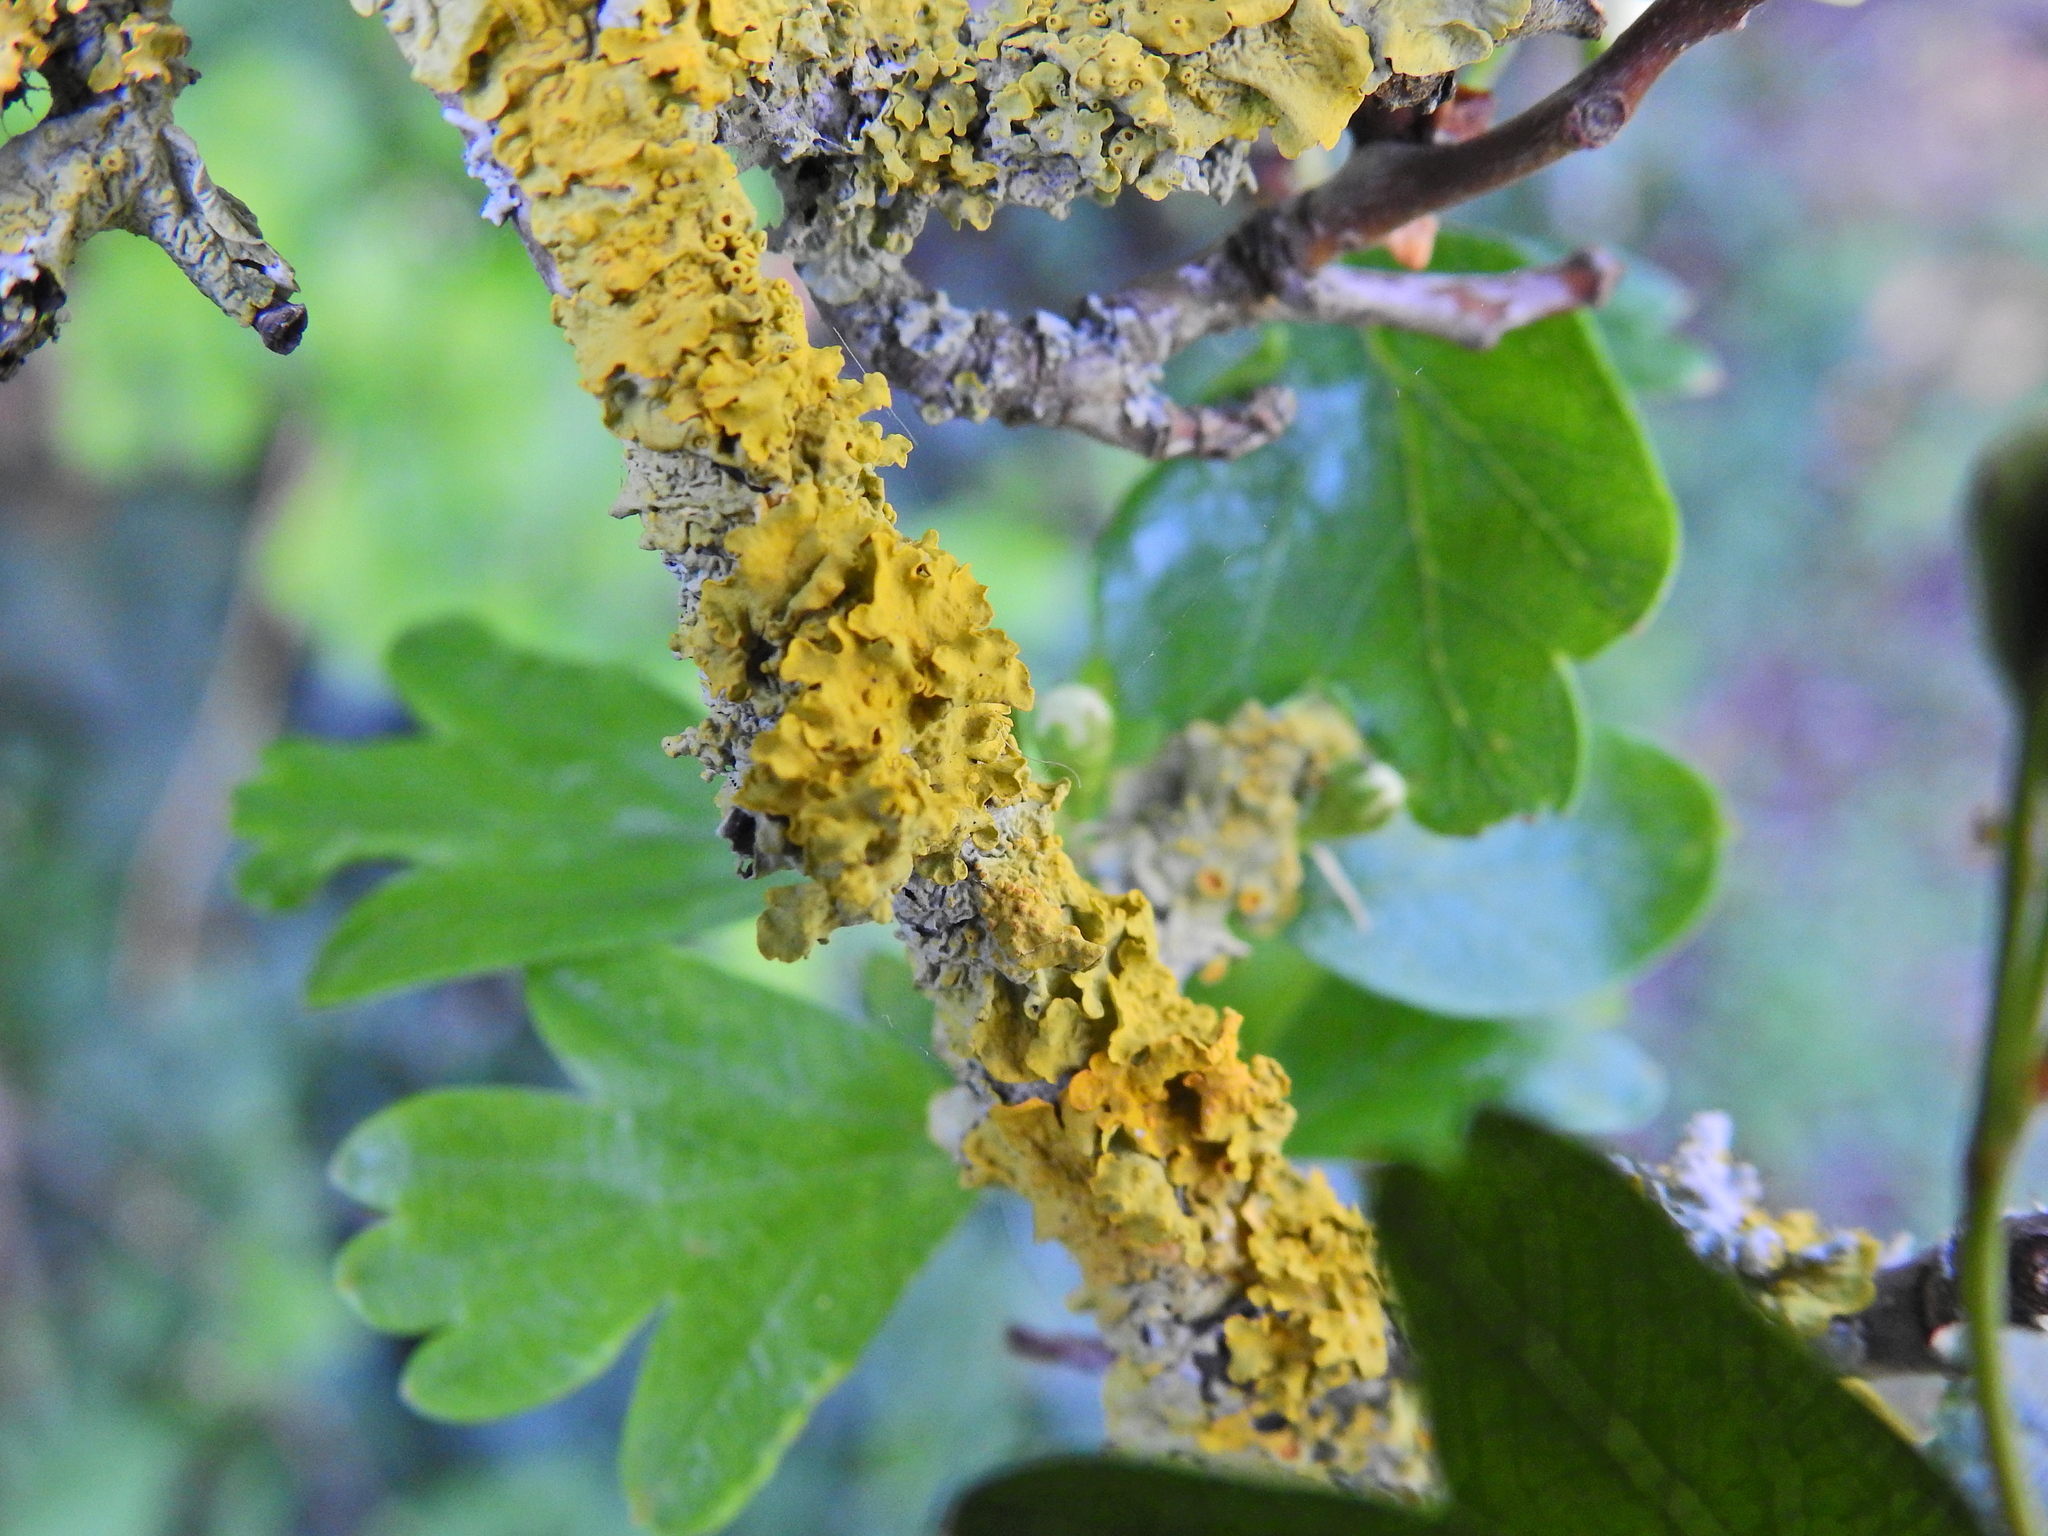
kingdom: Fungi
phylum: Ascomycota
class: Lecanoromycetes
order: Teloschistales
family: Teloschistaceae
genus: Xanthoria
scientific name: Xanthoria parietina
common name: Common orange lichen
